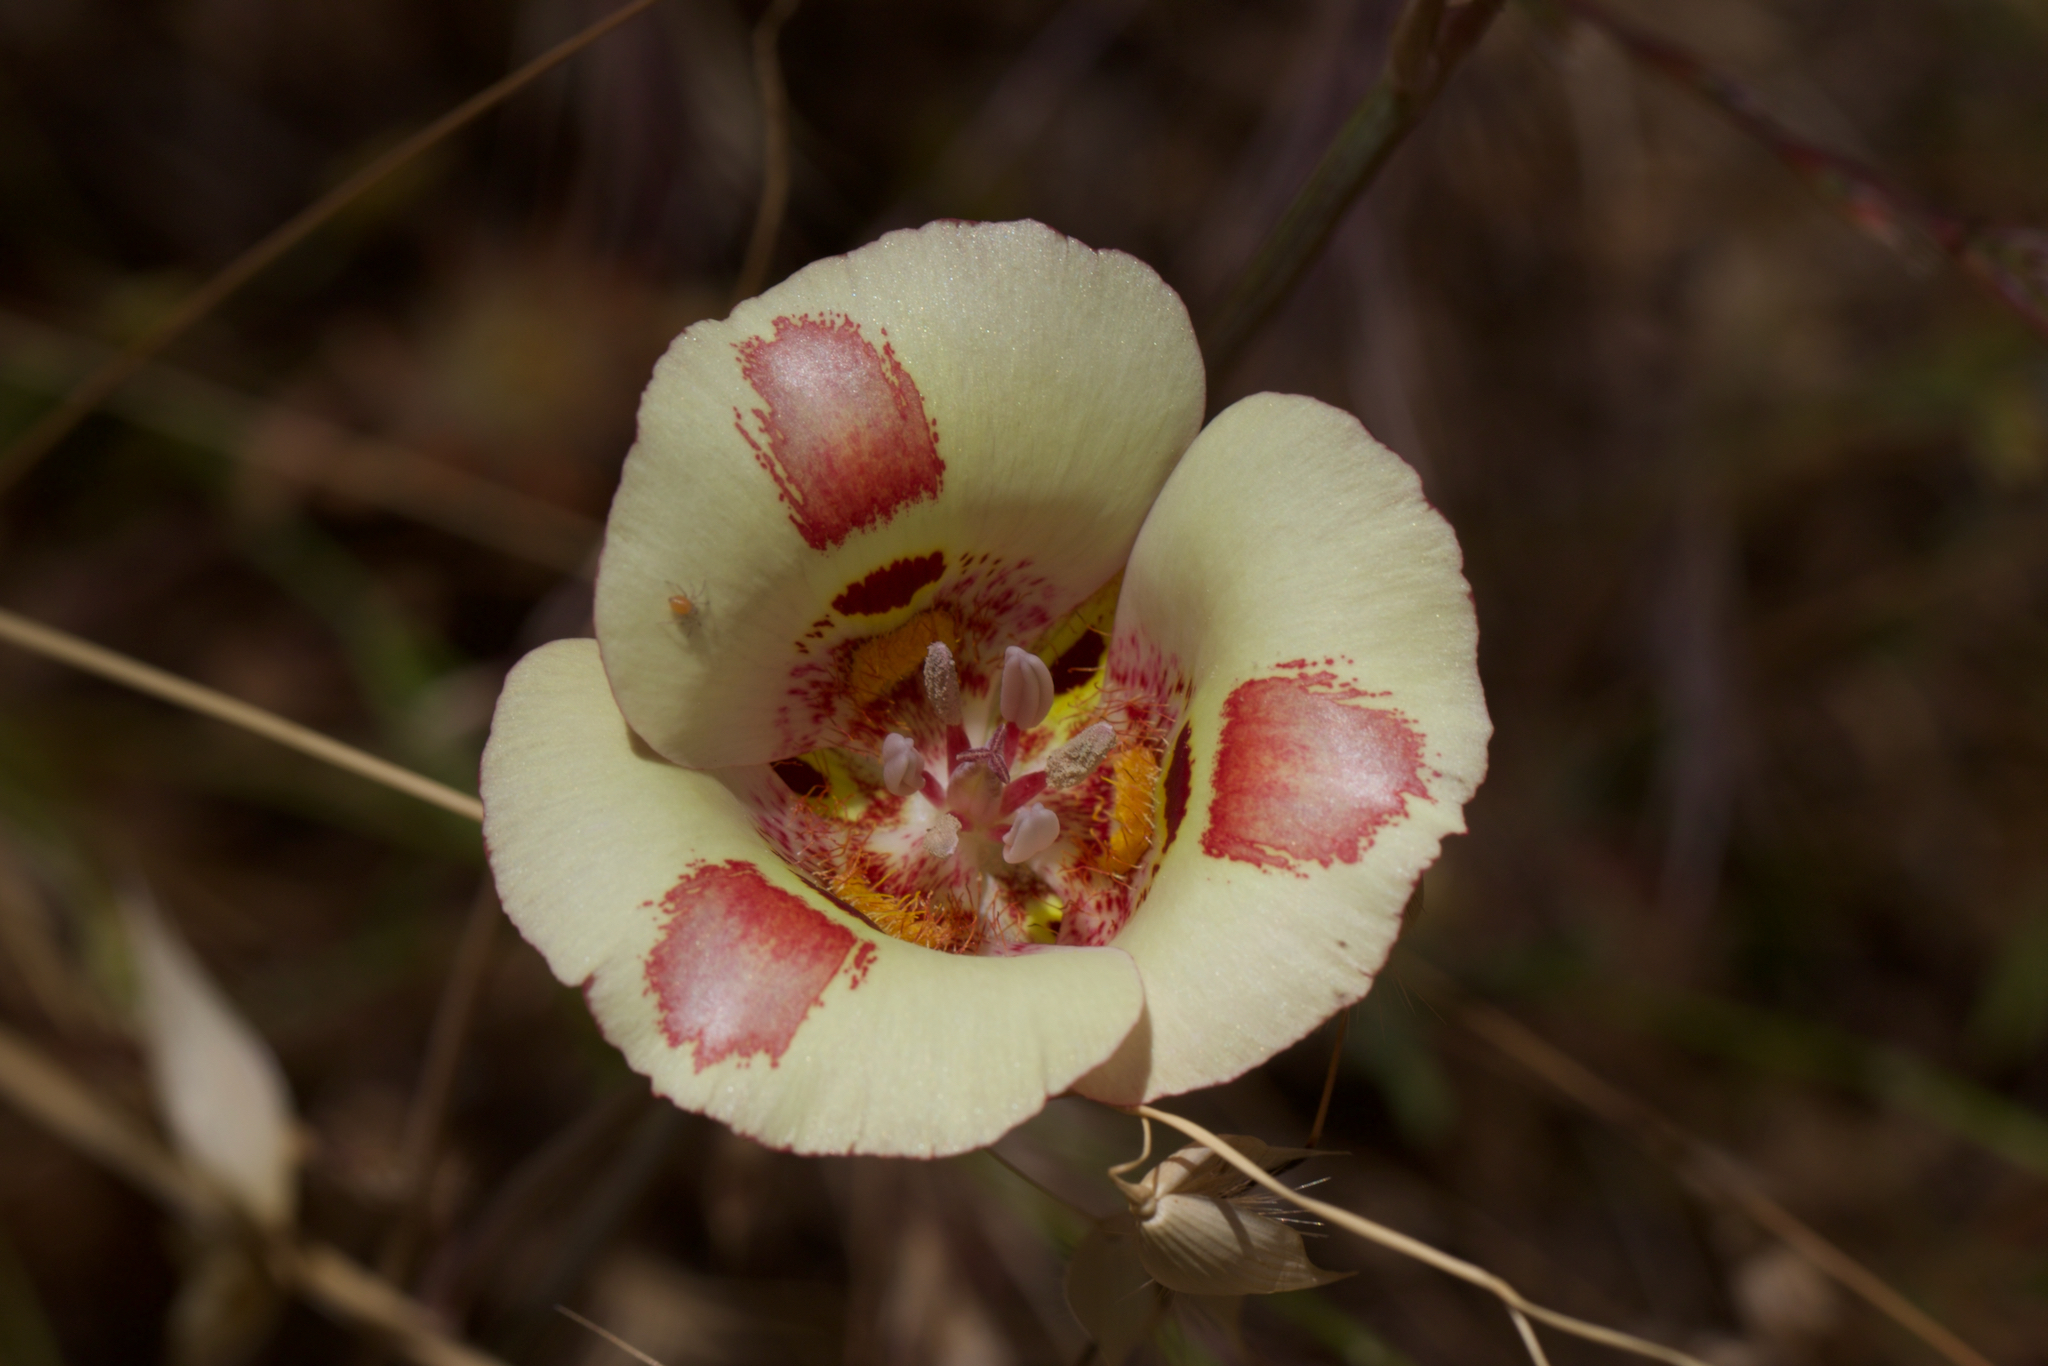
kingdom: Plantae
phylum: Tracheophyta
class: Liliopsida
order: Liliales
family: Liliaceae
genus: Calochortus
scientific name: Calochortus venustus
